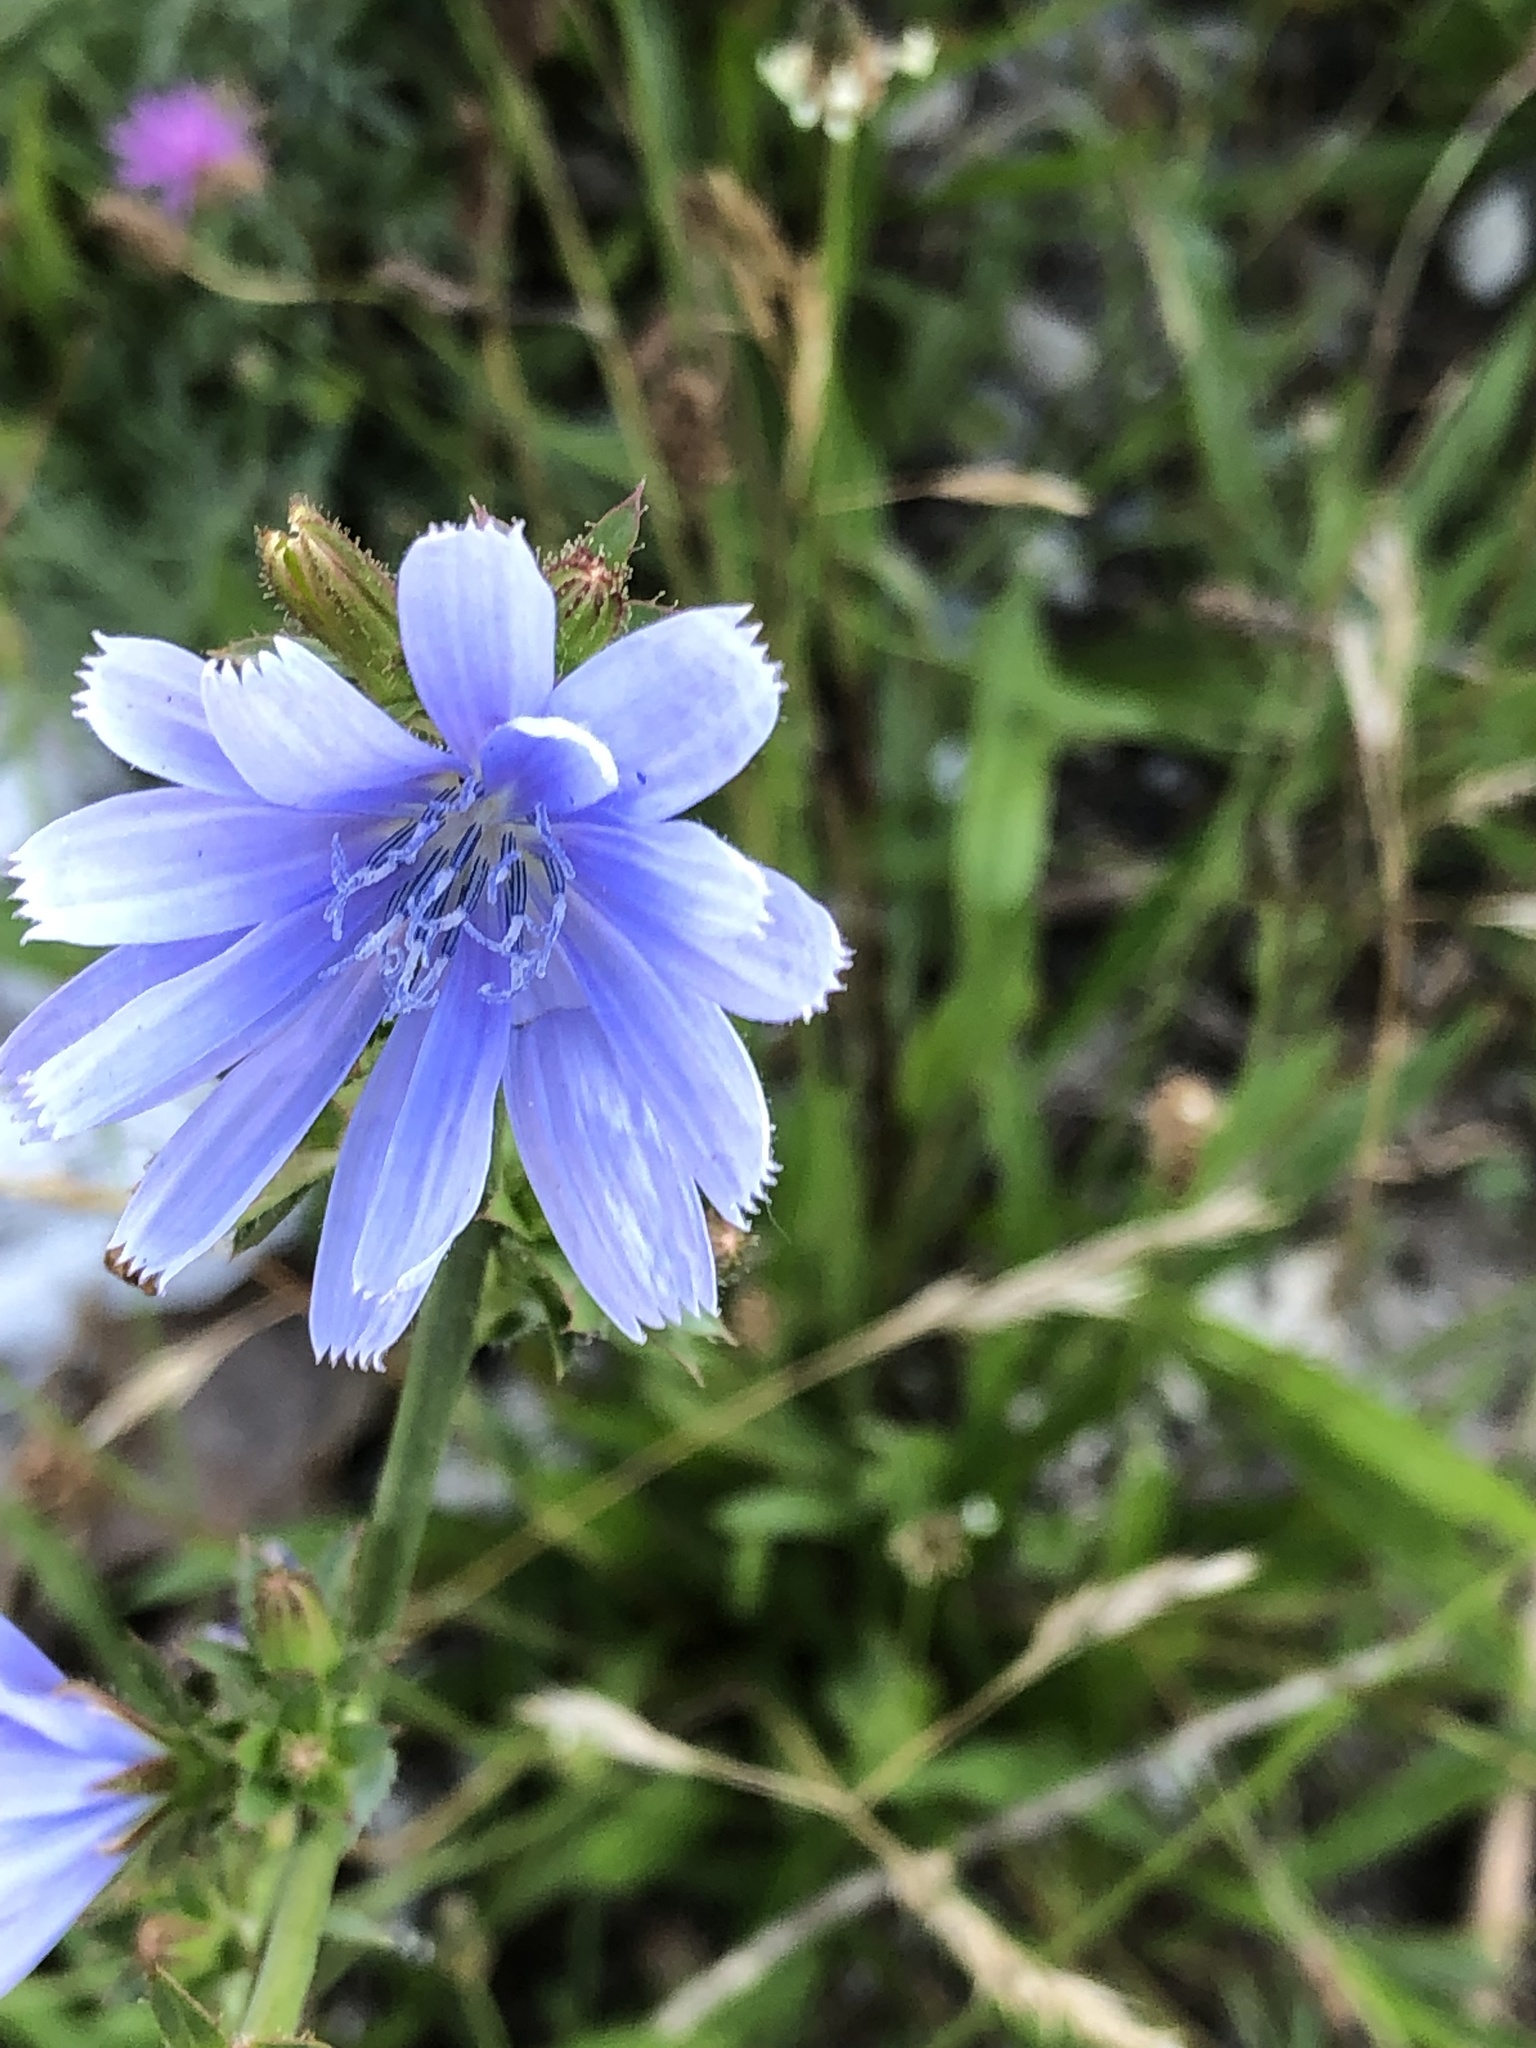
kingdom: Plantae
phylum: Tracheophyta
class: Magnoliopsida
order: Asterales
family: Asteraceae
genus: Cichorium
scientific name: Cichorium intybus
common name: Chicory
